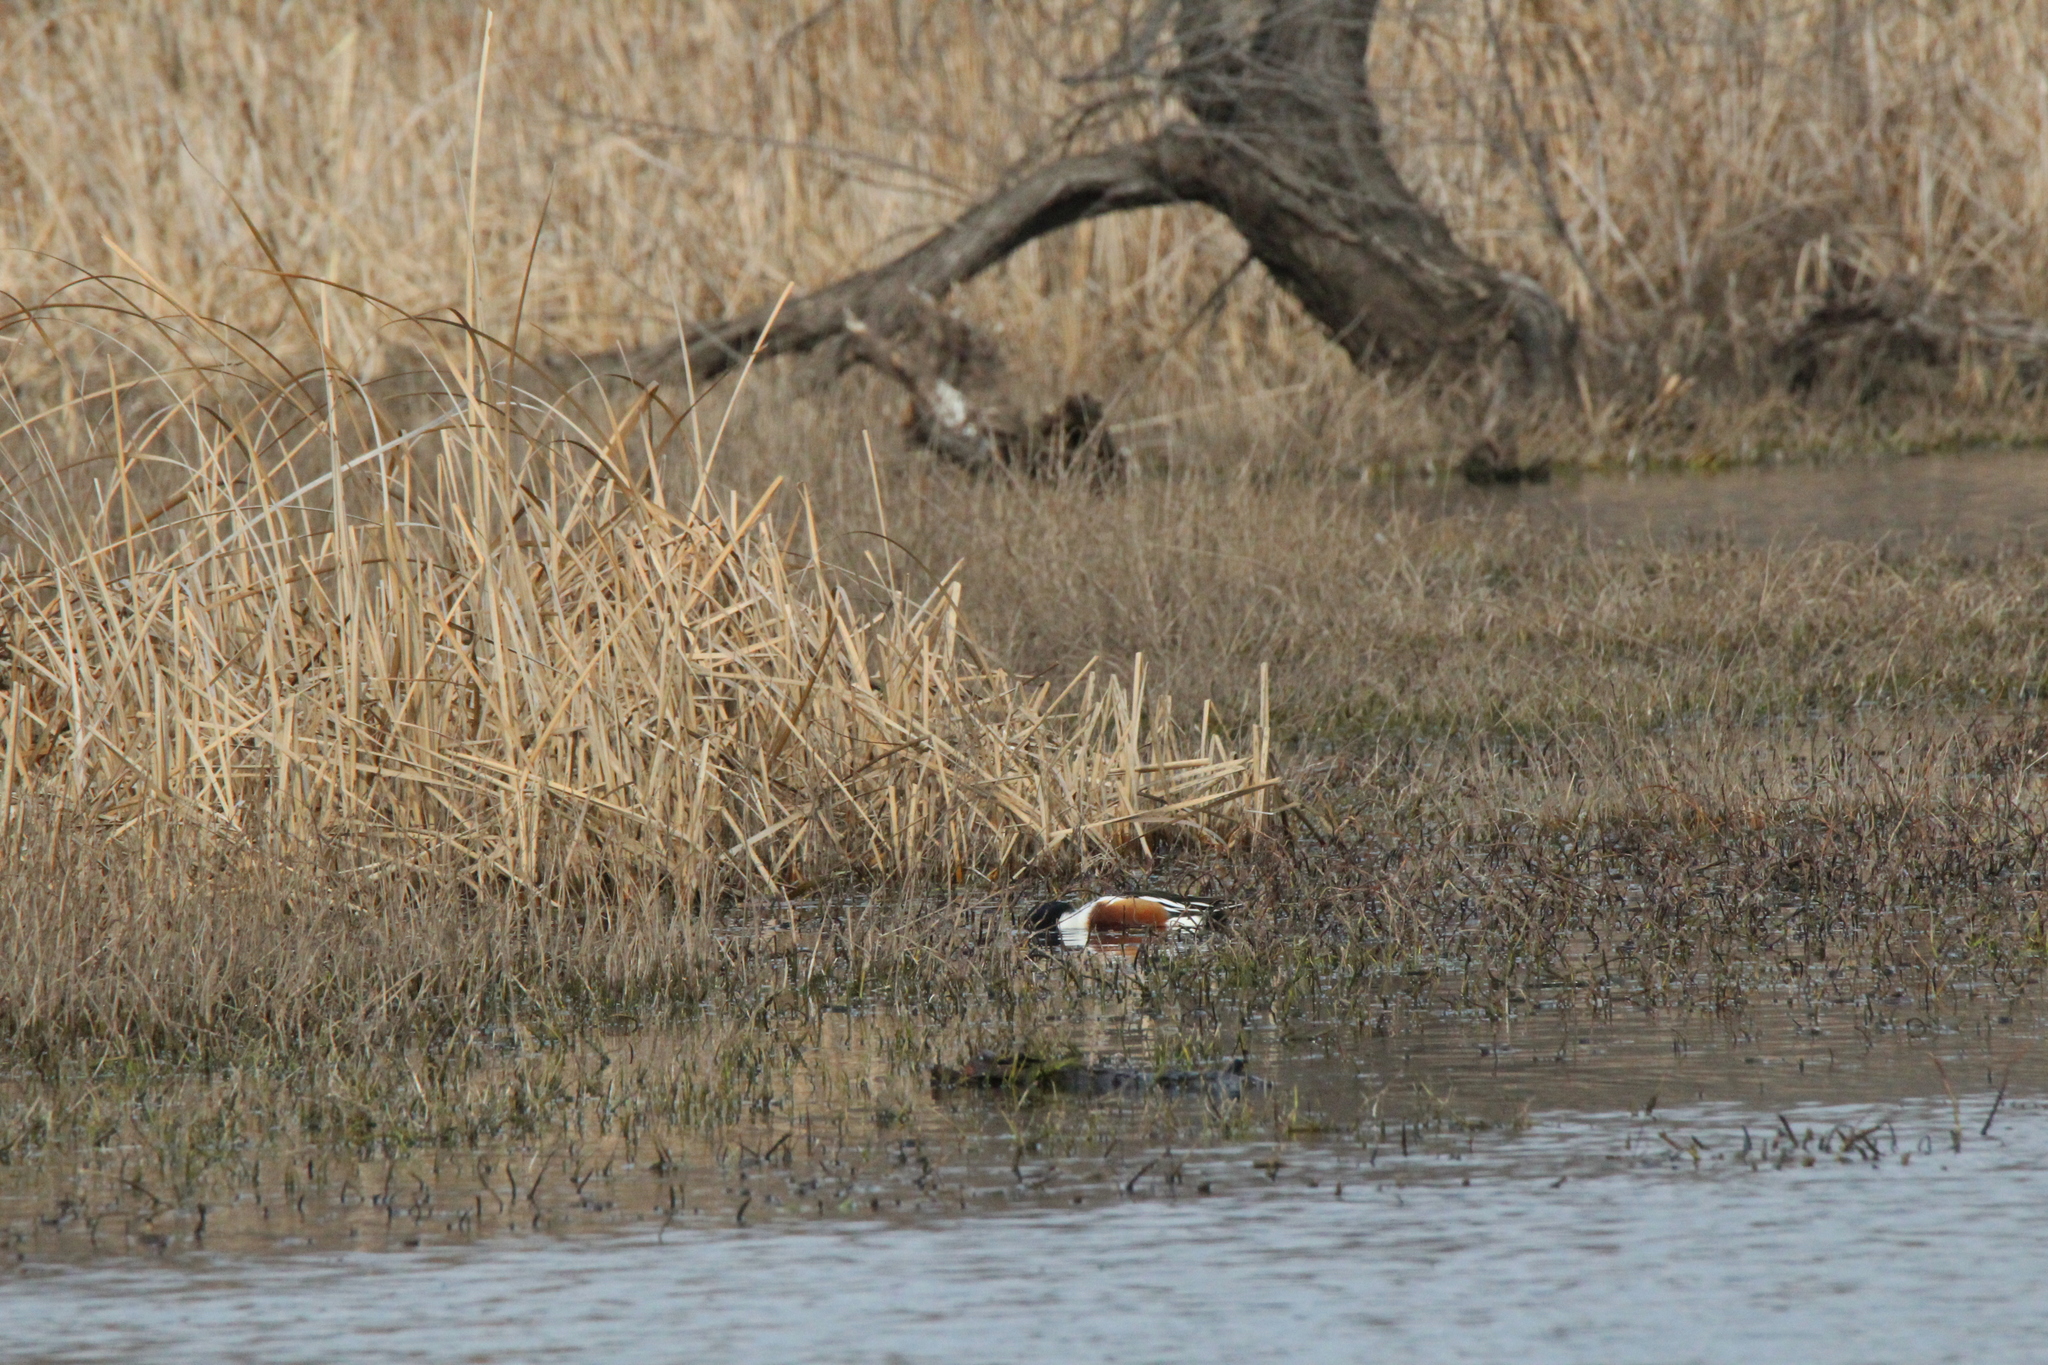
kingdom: Animalia
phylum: Chordata
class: Aves
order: Anseriformes
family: Anatidae
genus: Spatula
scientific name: Spatula clypeata
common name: Northern shoveler
